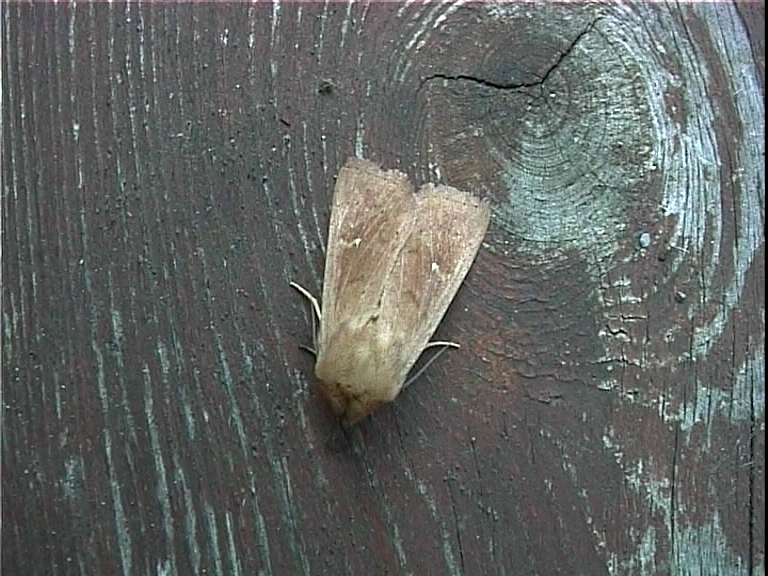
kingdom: Animalia
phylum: Arthropoda
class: Insecta
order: Lepidoptera
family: Noctuidae
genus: Mythimna
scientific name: Mythimna ferrago
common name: Clay
